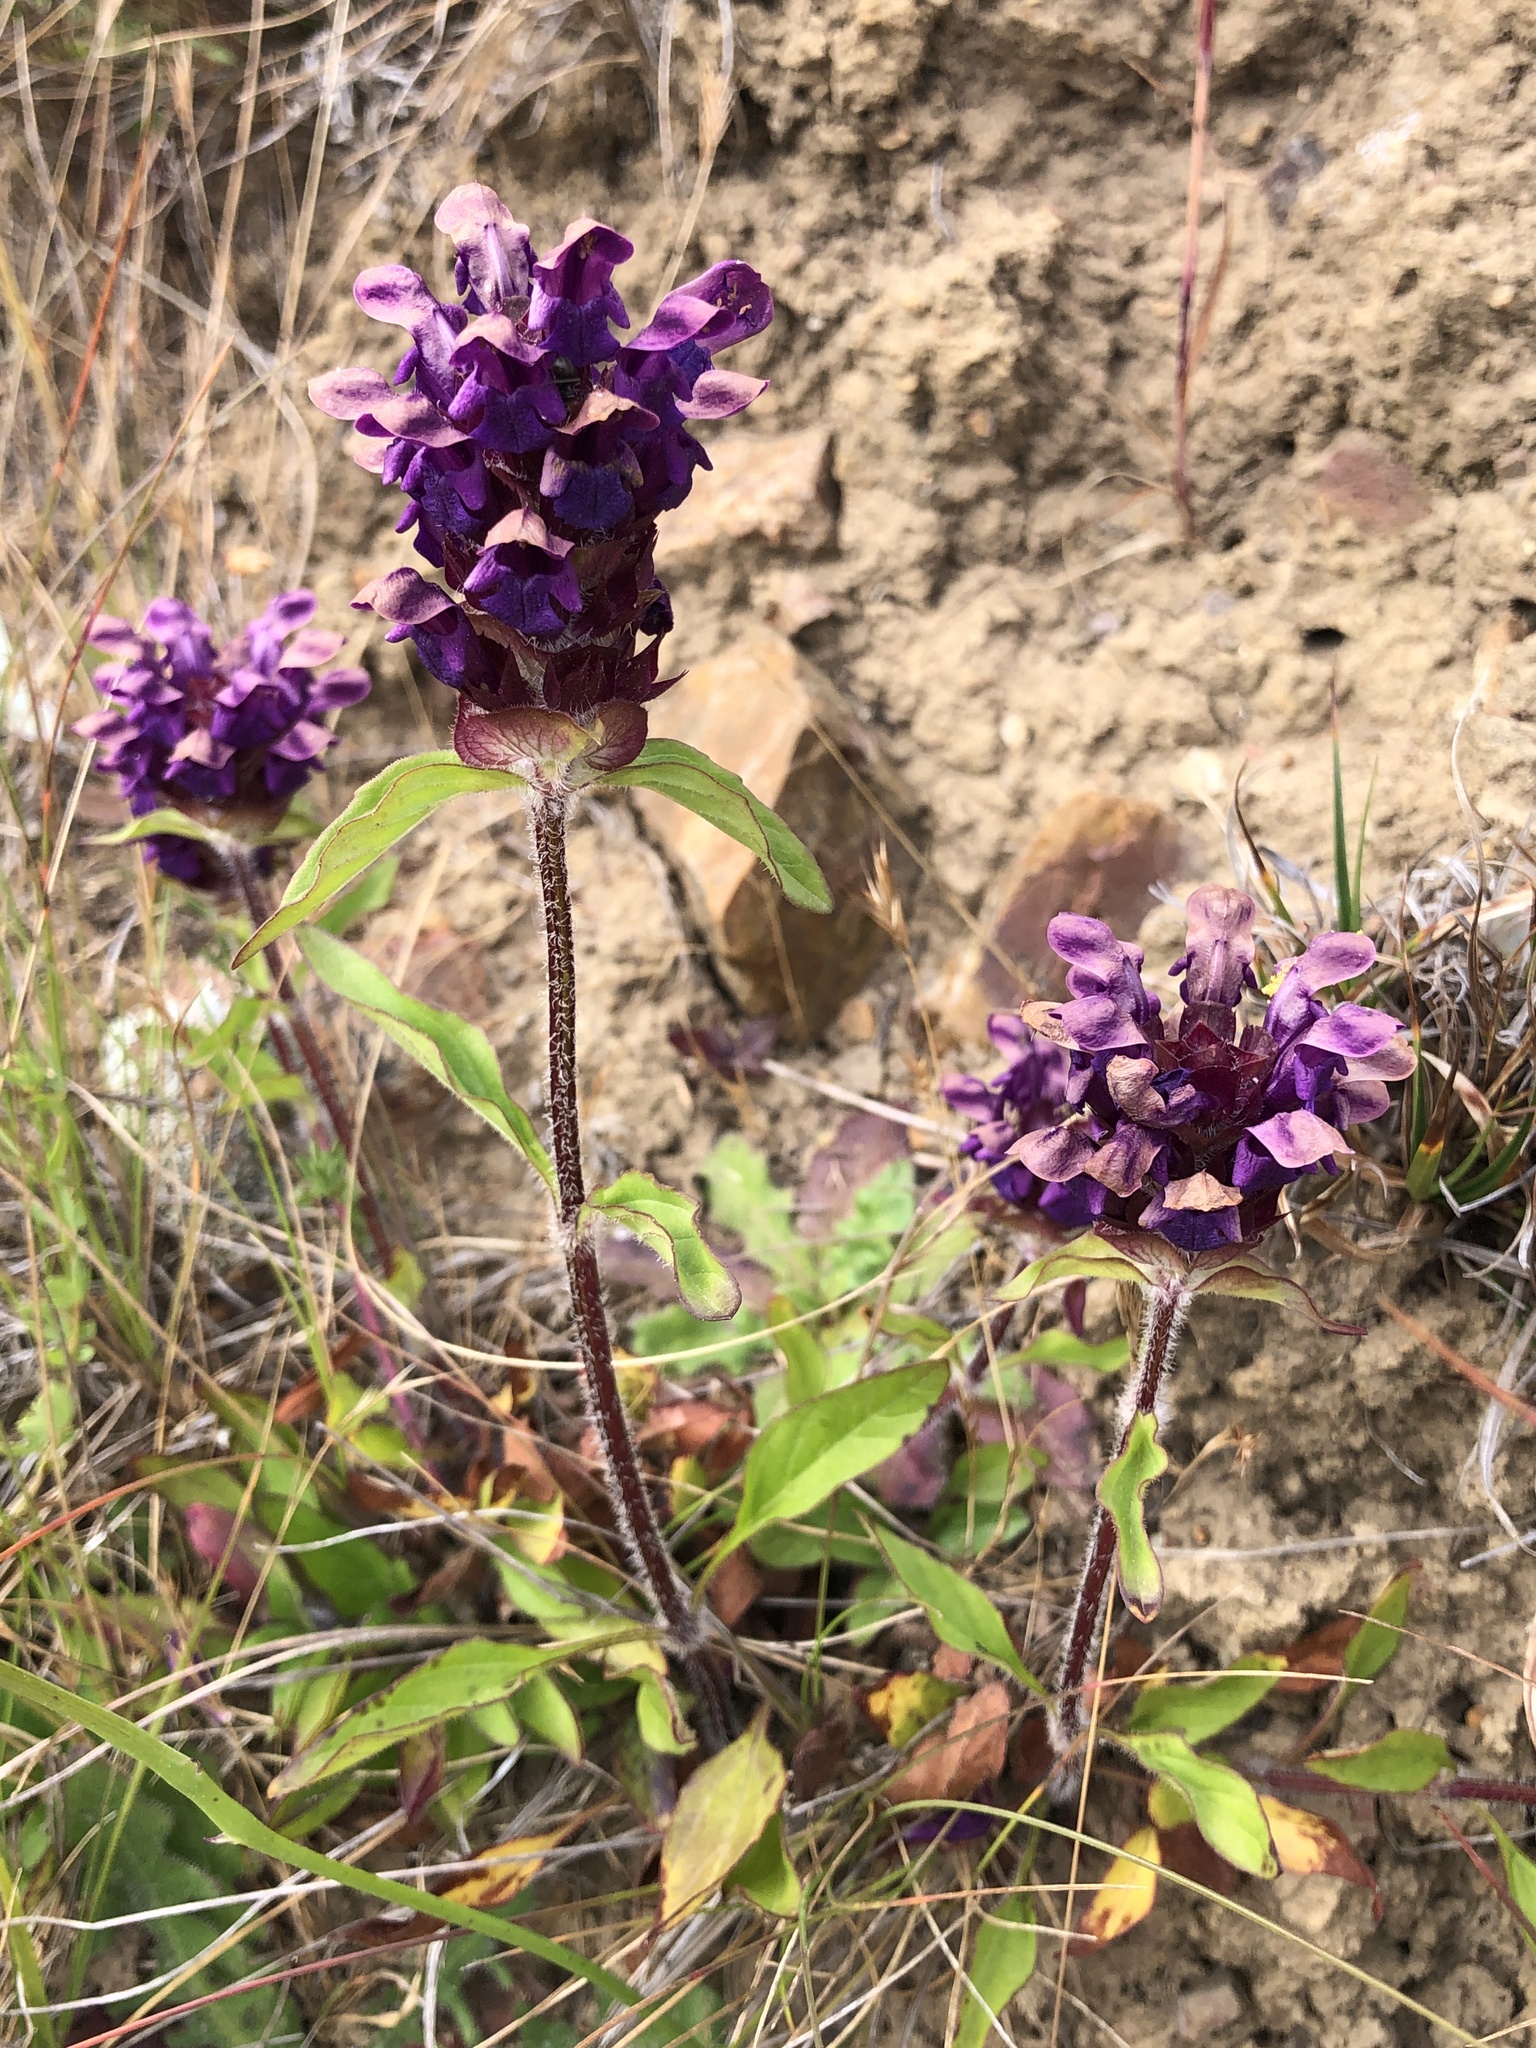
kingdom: Plantae
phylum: Tracheophyta
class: Magnoliopsida
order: Lamiales
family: Lamiaceae
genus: Prunella
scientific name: Prunella vulgaris
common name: Heal-all
